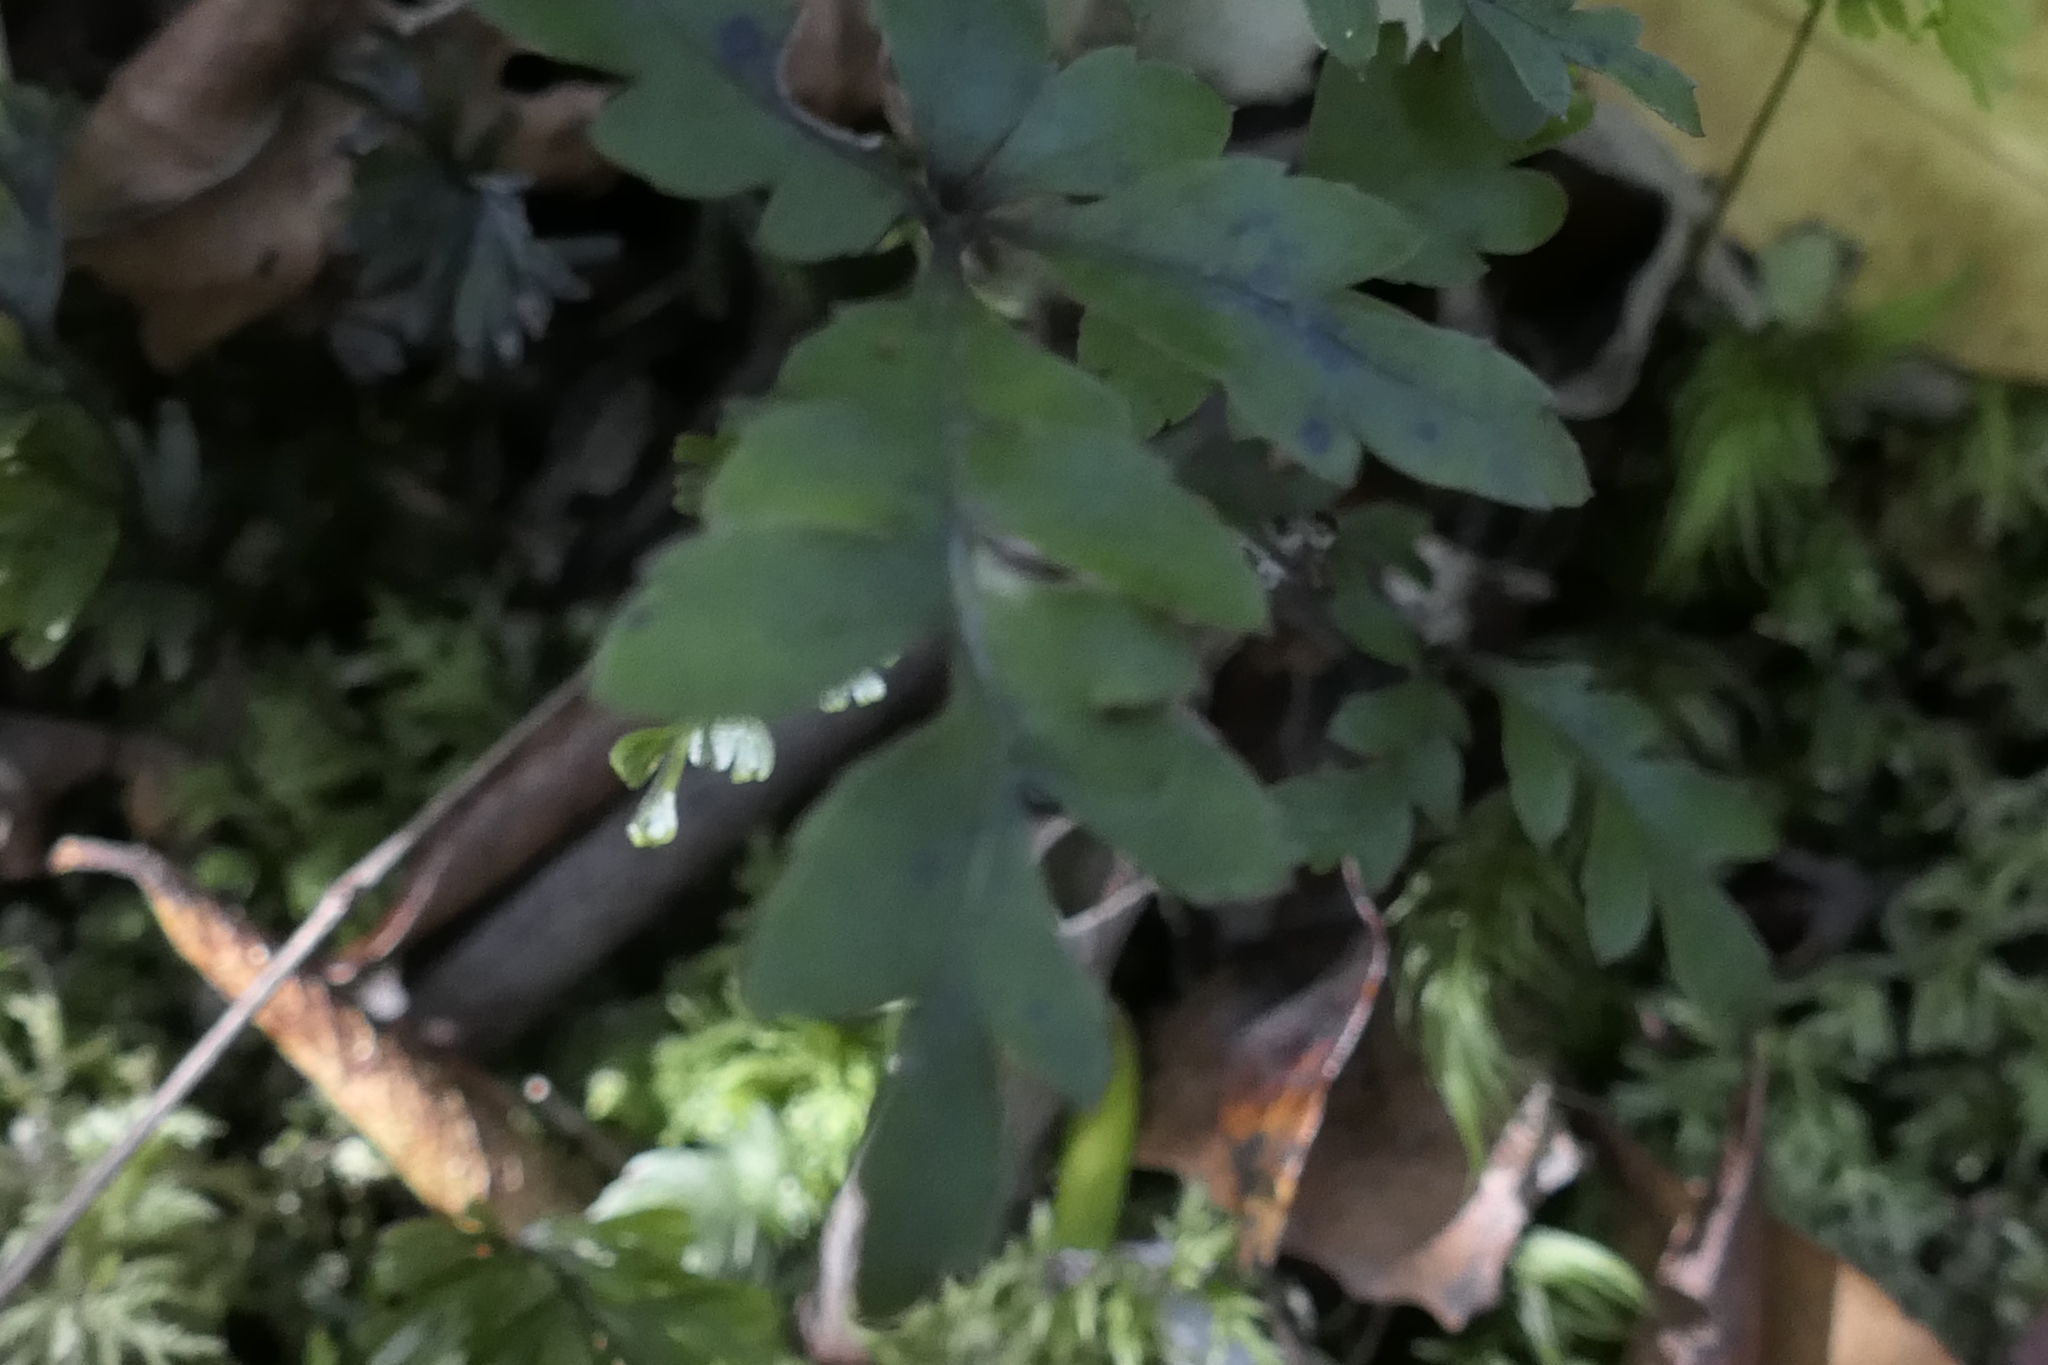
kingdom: Plantae
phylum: Tracheophyta
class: Magnoliopsida
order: Apiales
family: Araliaceae
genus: Raukaua
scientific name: Raukaua simplex
